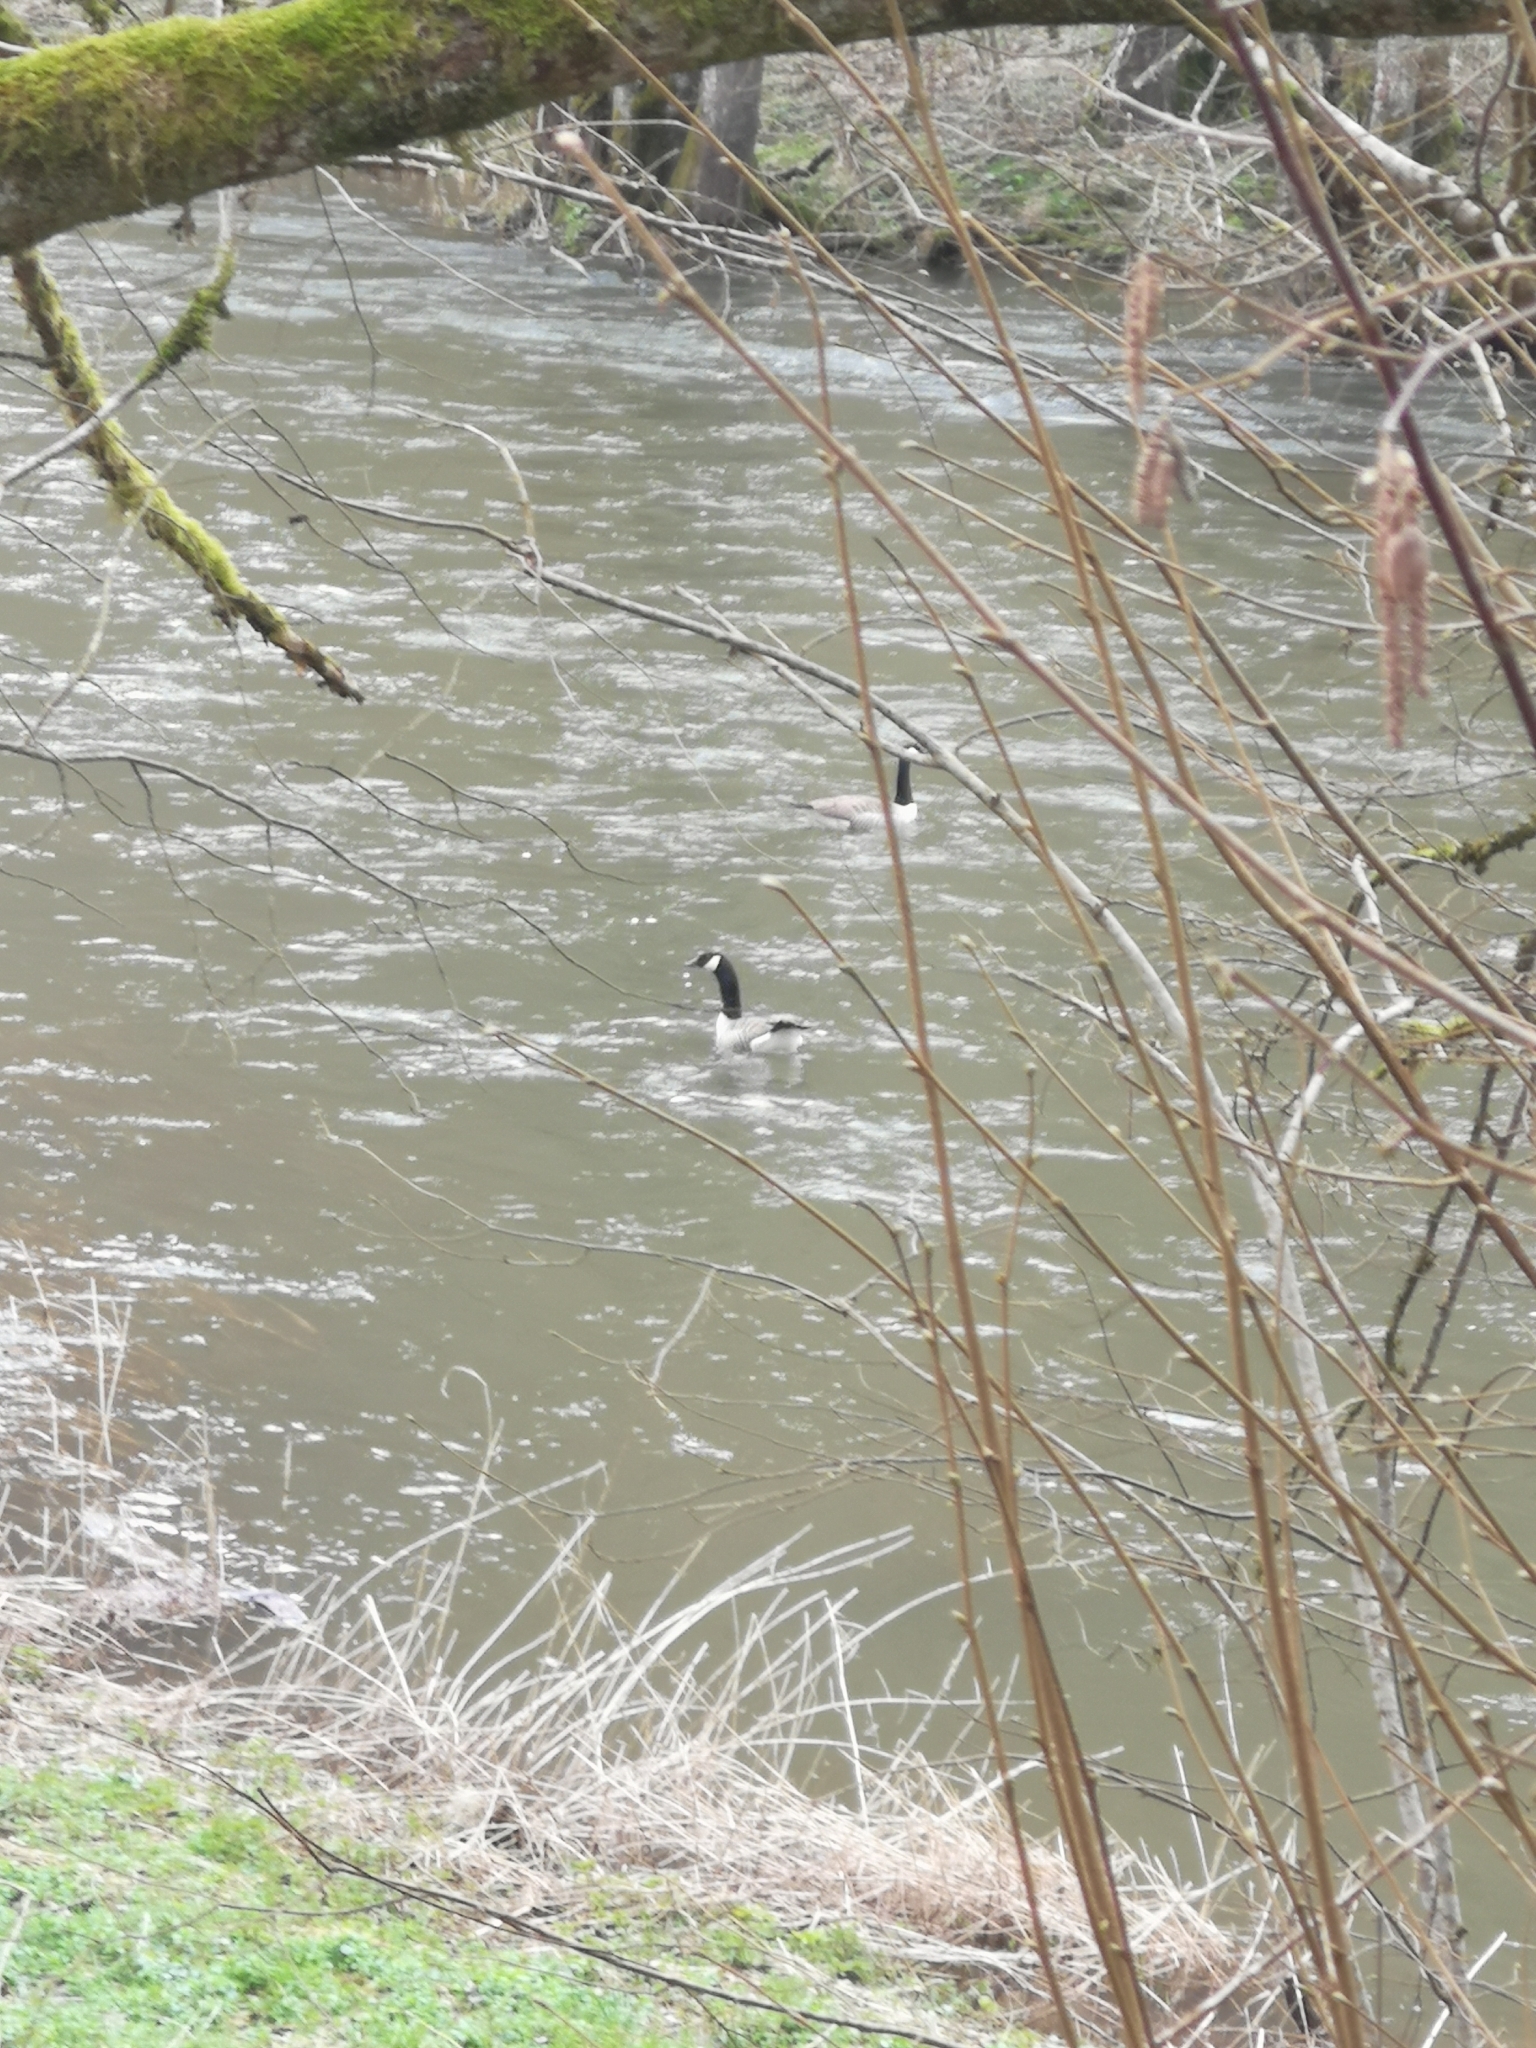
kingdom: Animalia
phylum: Chordata
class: Aves
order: Anseriformes
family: Anatidae
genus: Branta
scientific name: Branta canadensis
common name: Canada goose
